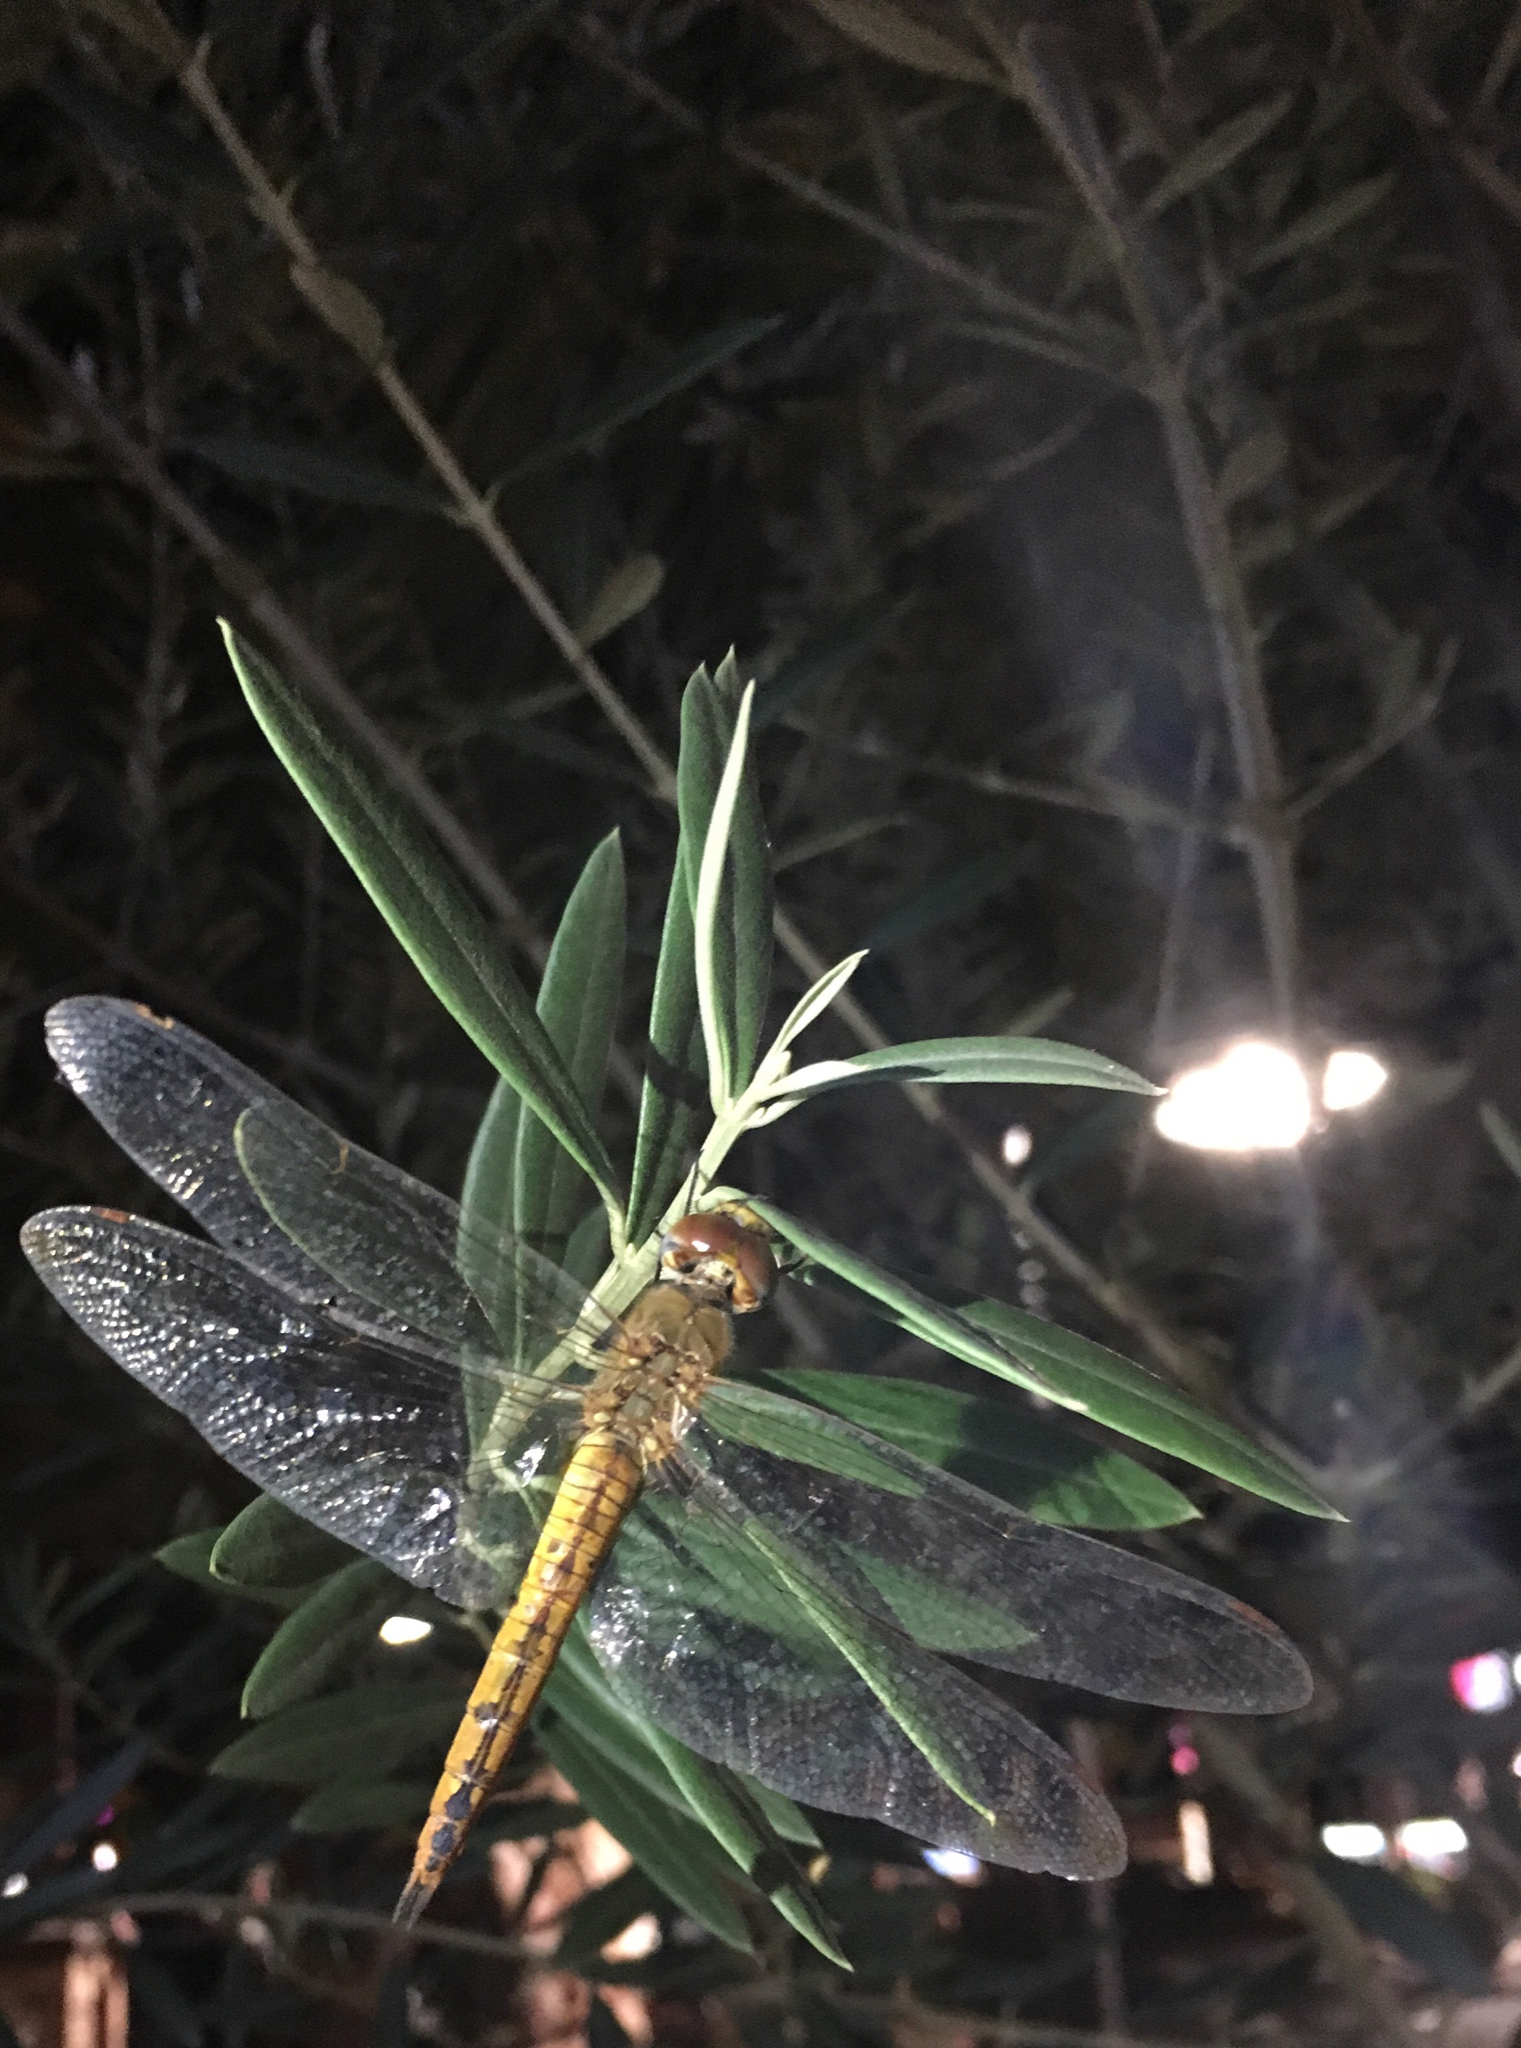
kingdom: Animalia
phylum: Arthropoda
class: Insecta
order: Odonata
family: Libellulidae
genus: Pantala
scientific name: Pantala flavescens
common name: Wandering glider
